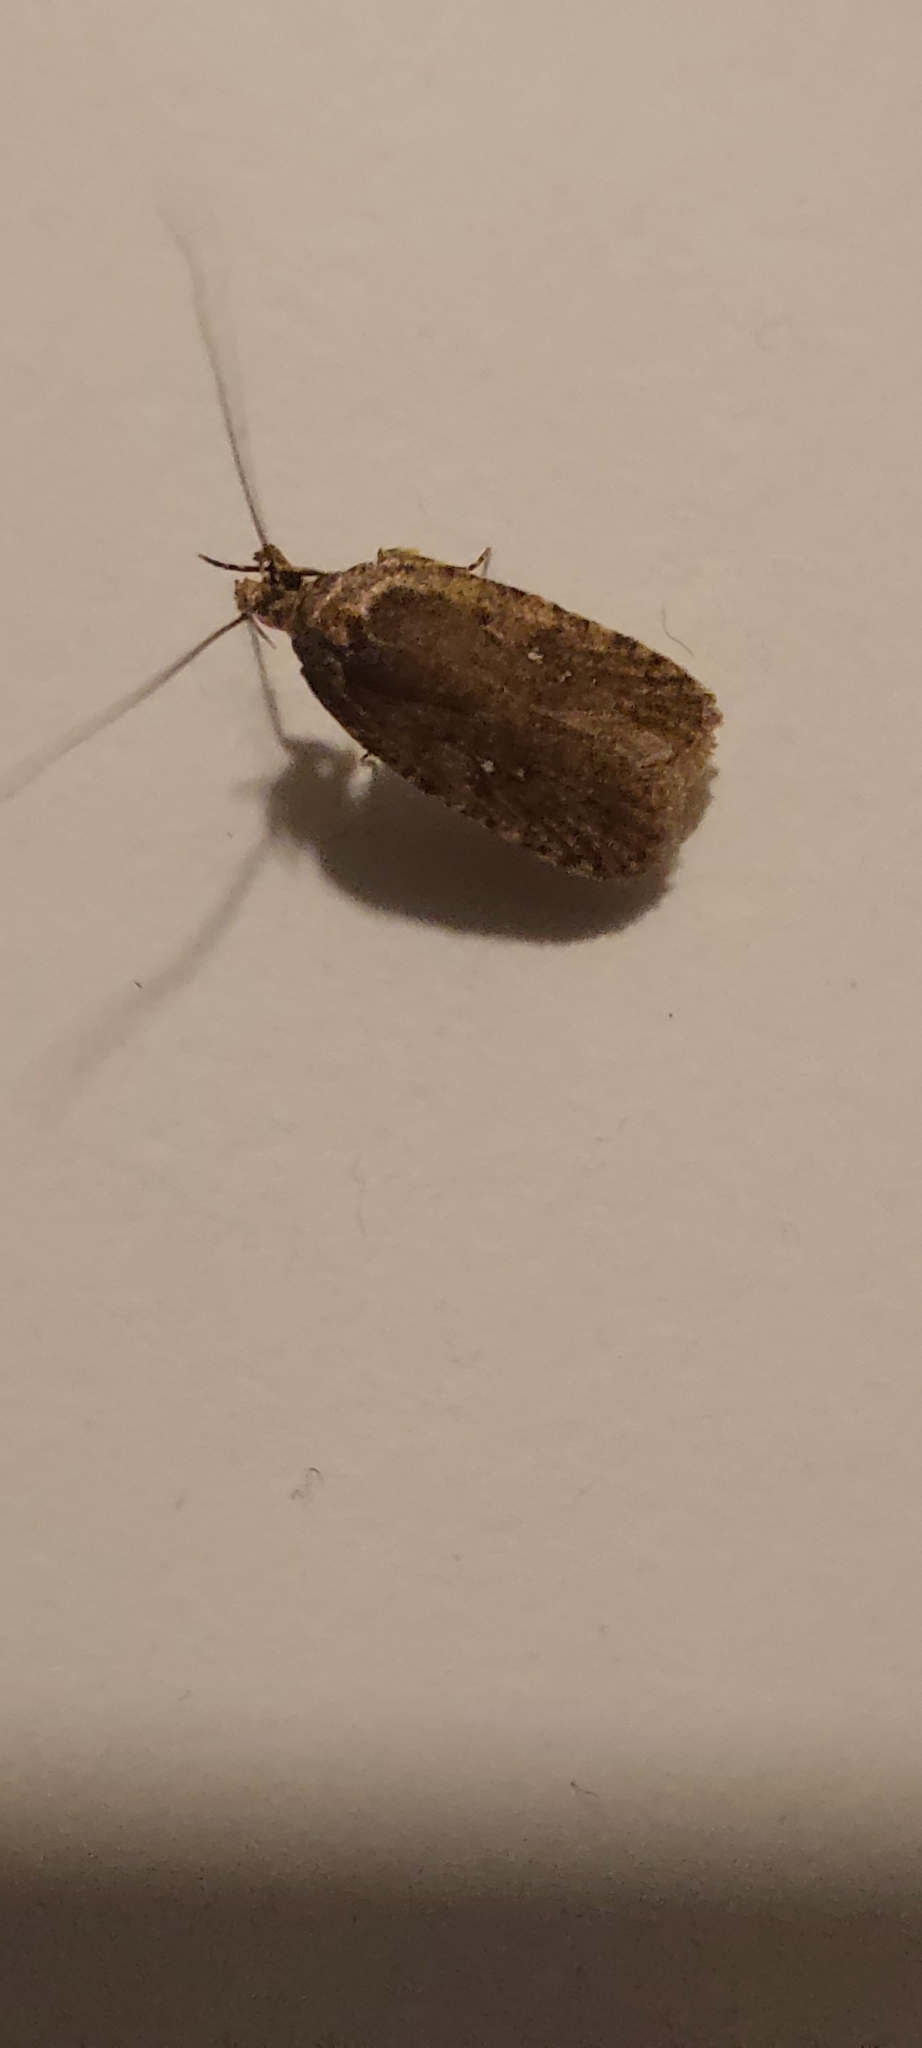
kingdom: Animalia
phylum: Arthropoda
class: Insecta
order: Lepidoptera
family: Depressariidae
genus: Agonopterix
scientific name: Agonopterix
